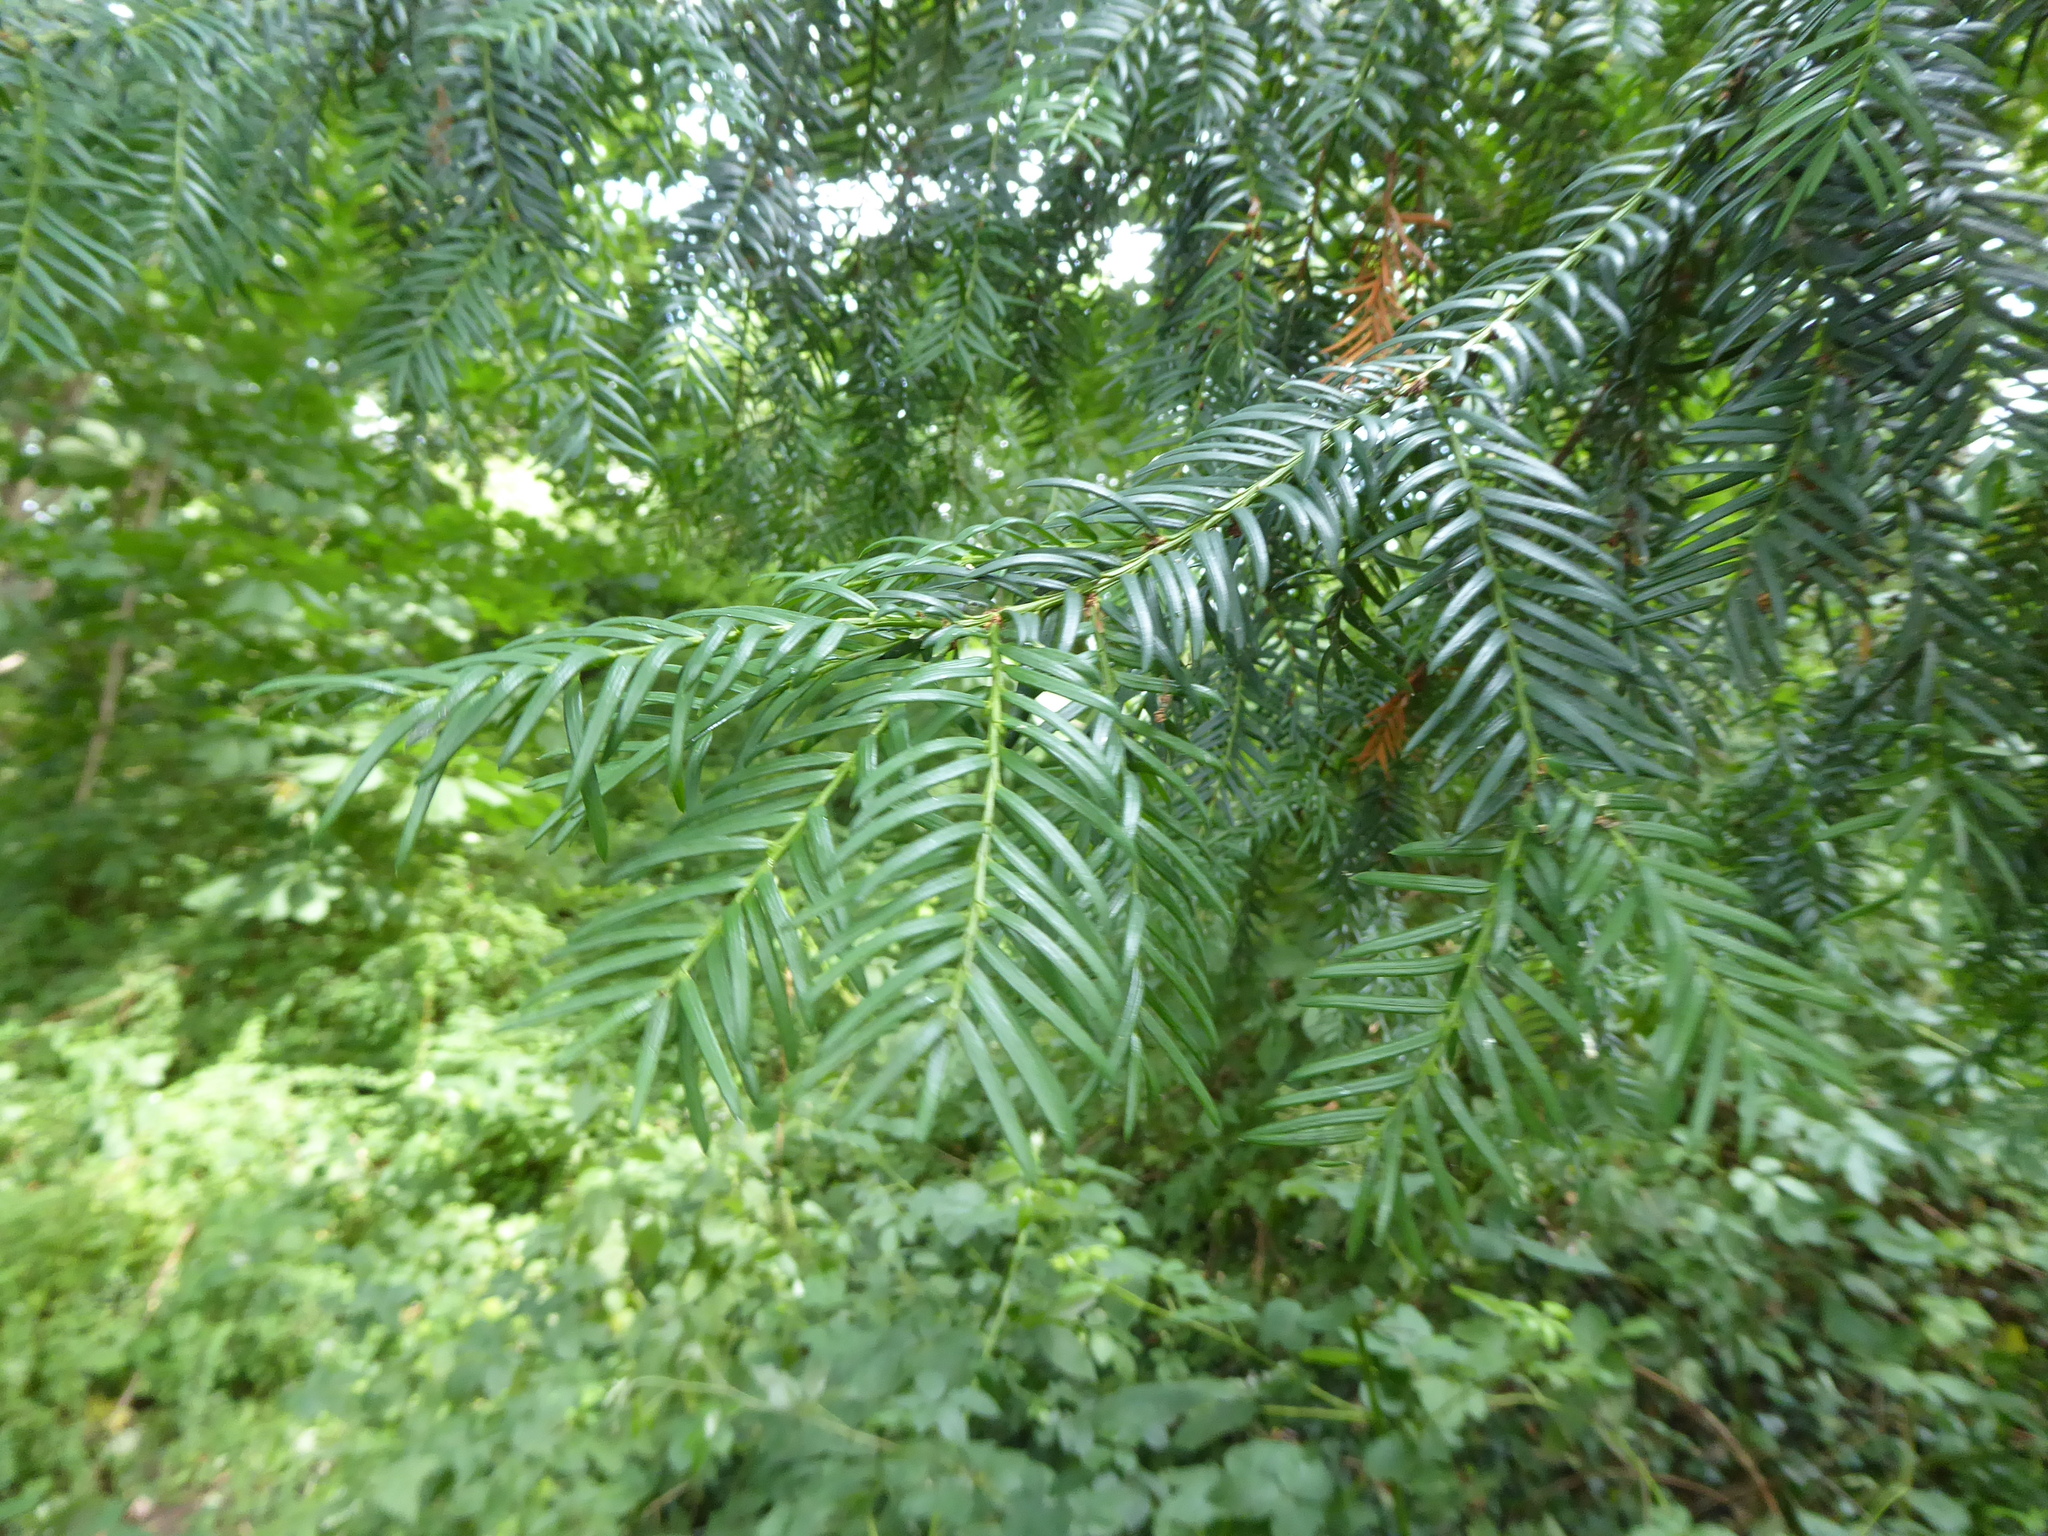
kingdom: Plantae
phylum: Tracheophyta
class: Pinopsida
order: Pinales
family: Taxaceae
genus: Taxus
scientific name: Taxus baccata
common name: Yew
